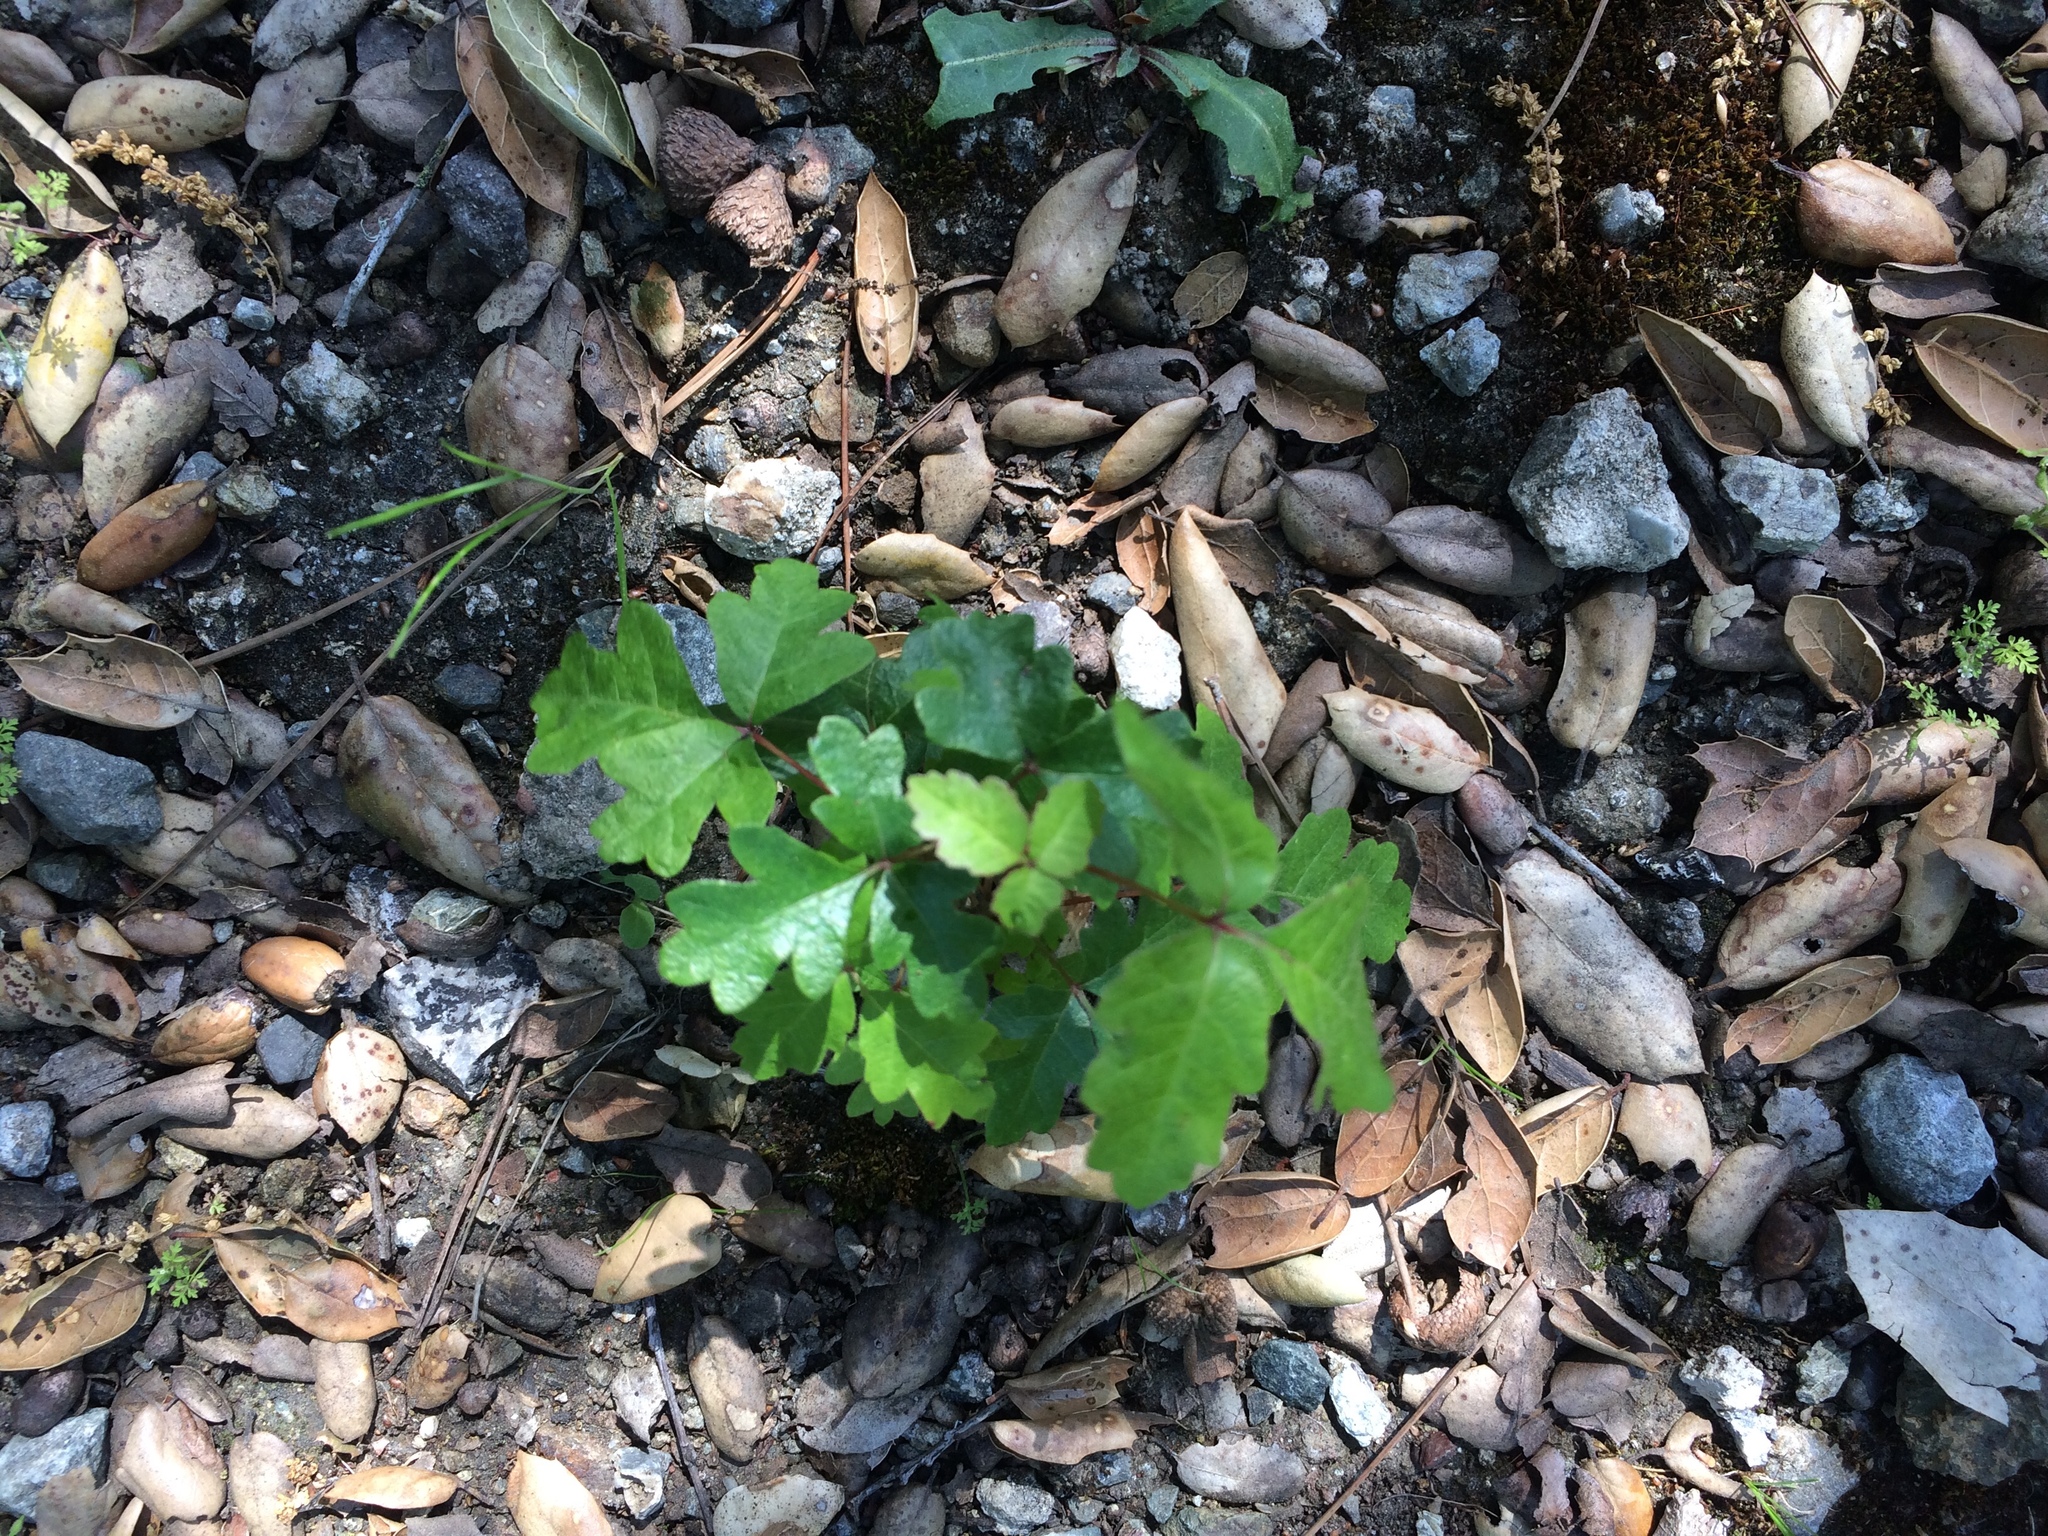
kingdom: Plantae
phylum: Tracheophyta
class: Magnoliopsida
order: Sapindales
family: Anacardiaceae
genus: Toxicodendron
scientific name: Toxicodendron diversilobum
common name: Pacific poison-oak
